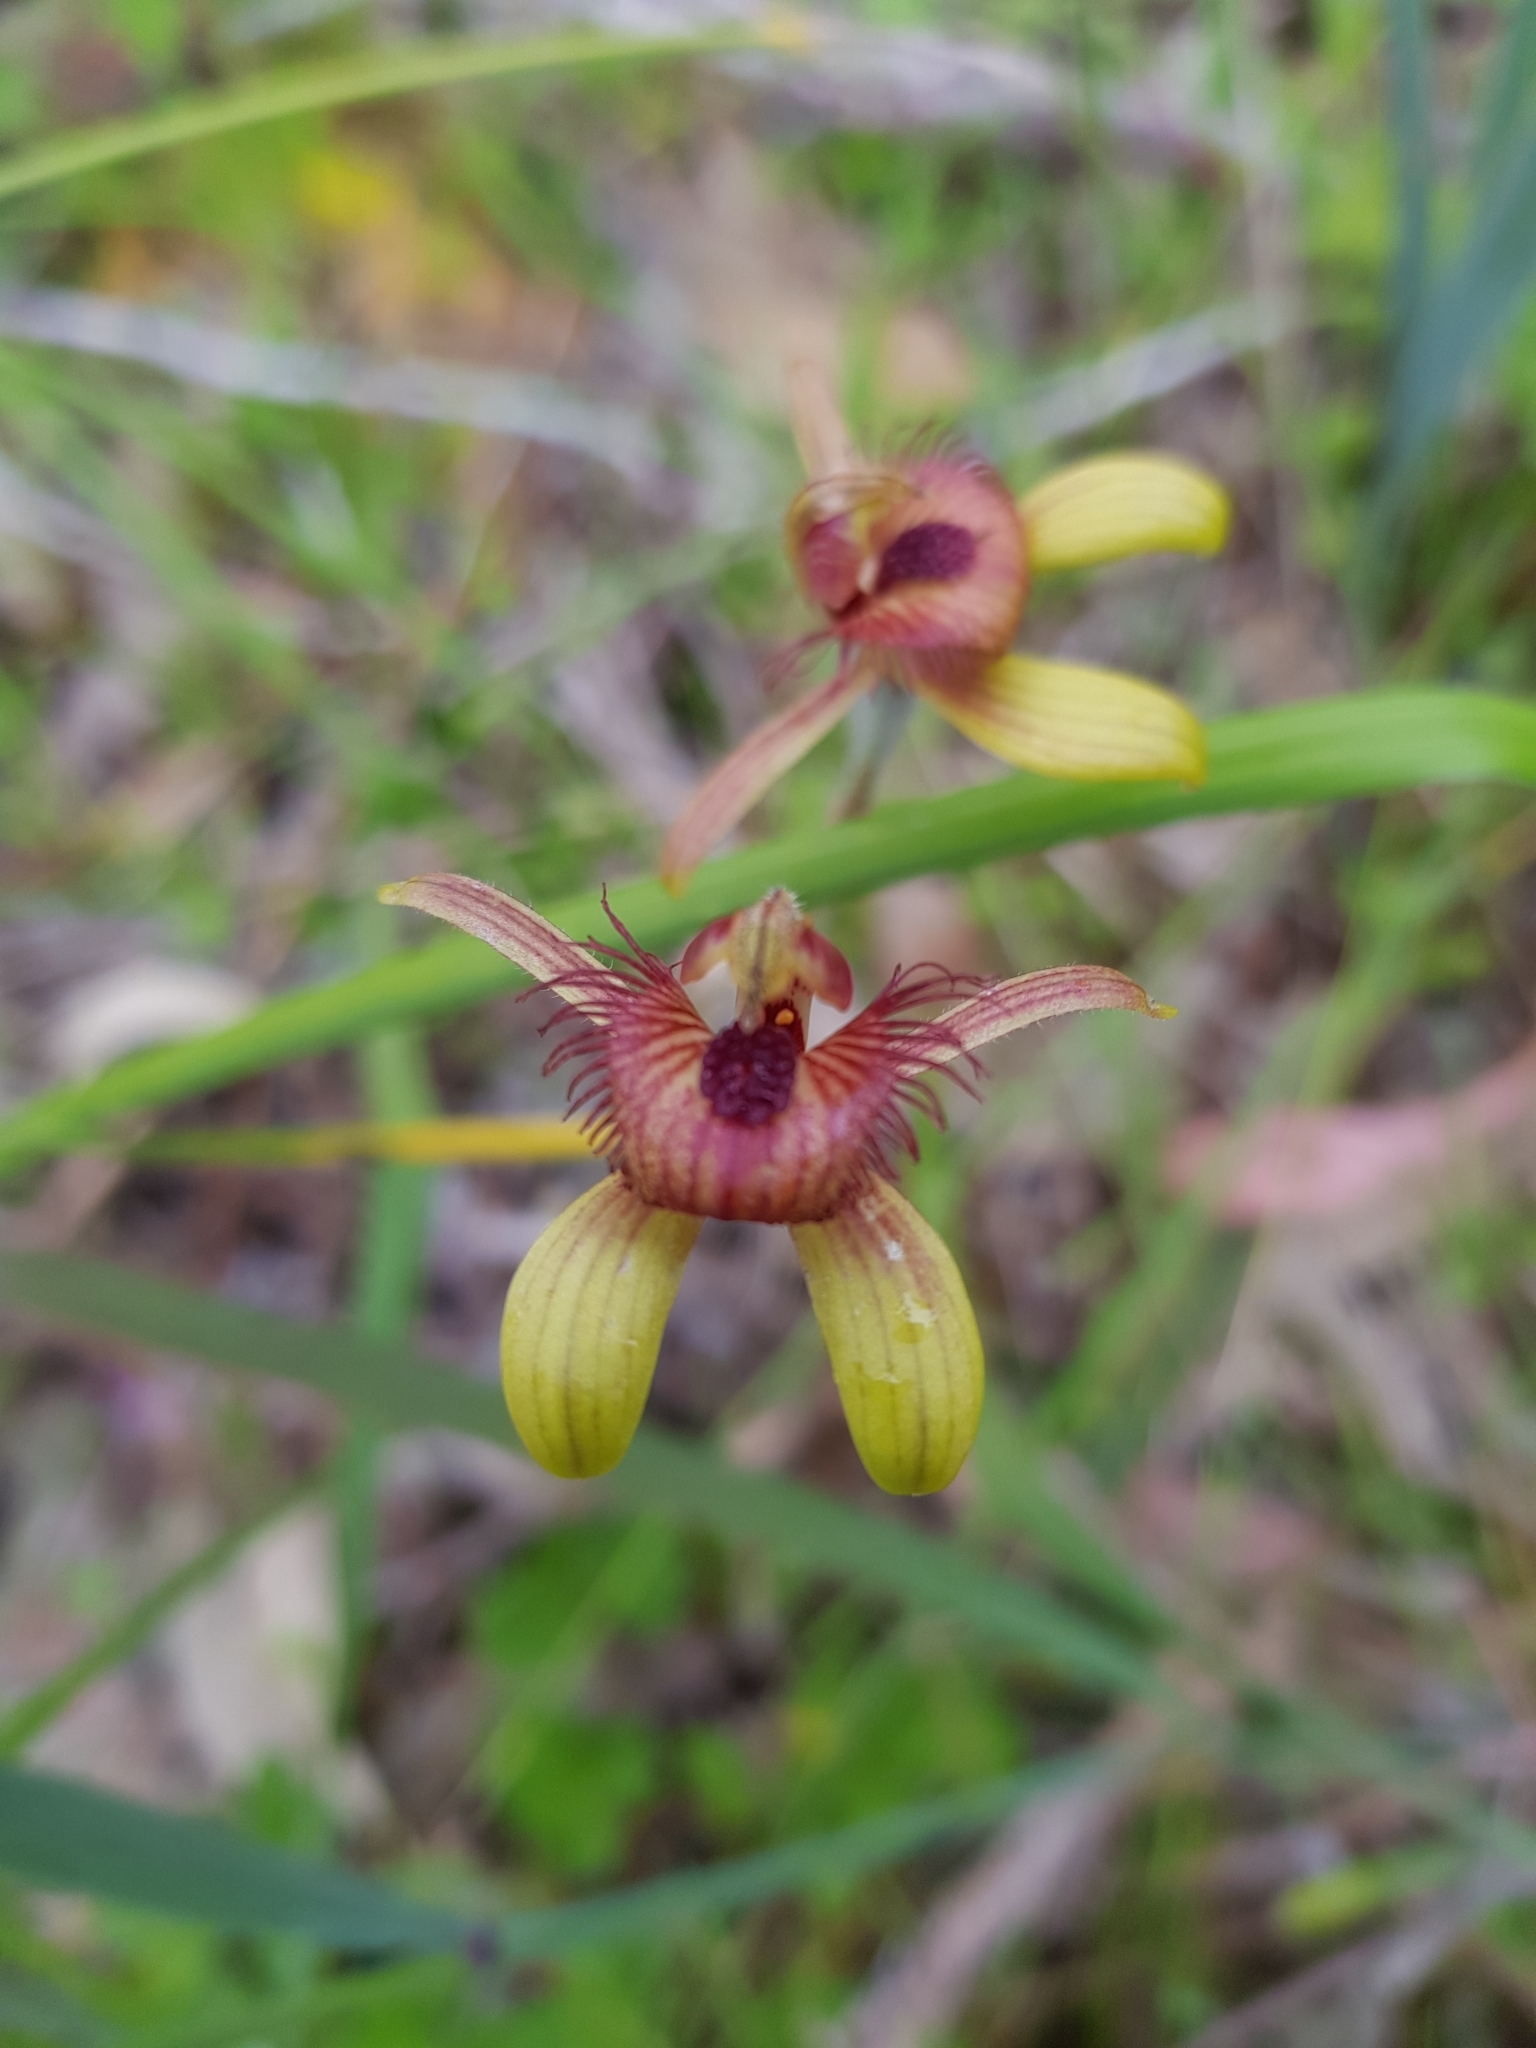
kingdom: Plantae
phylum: Tracheophyta
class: Liliopsida
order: Asparagales
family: Orchidaceae
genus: Caladenia
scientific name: Caladenia discoidea
